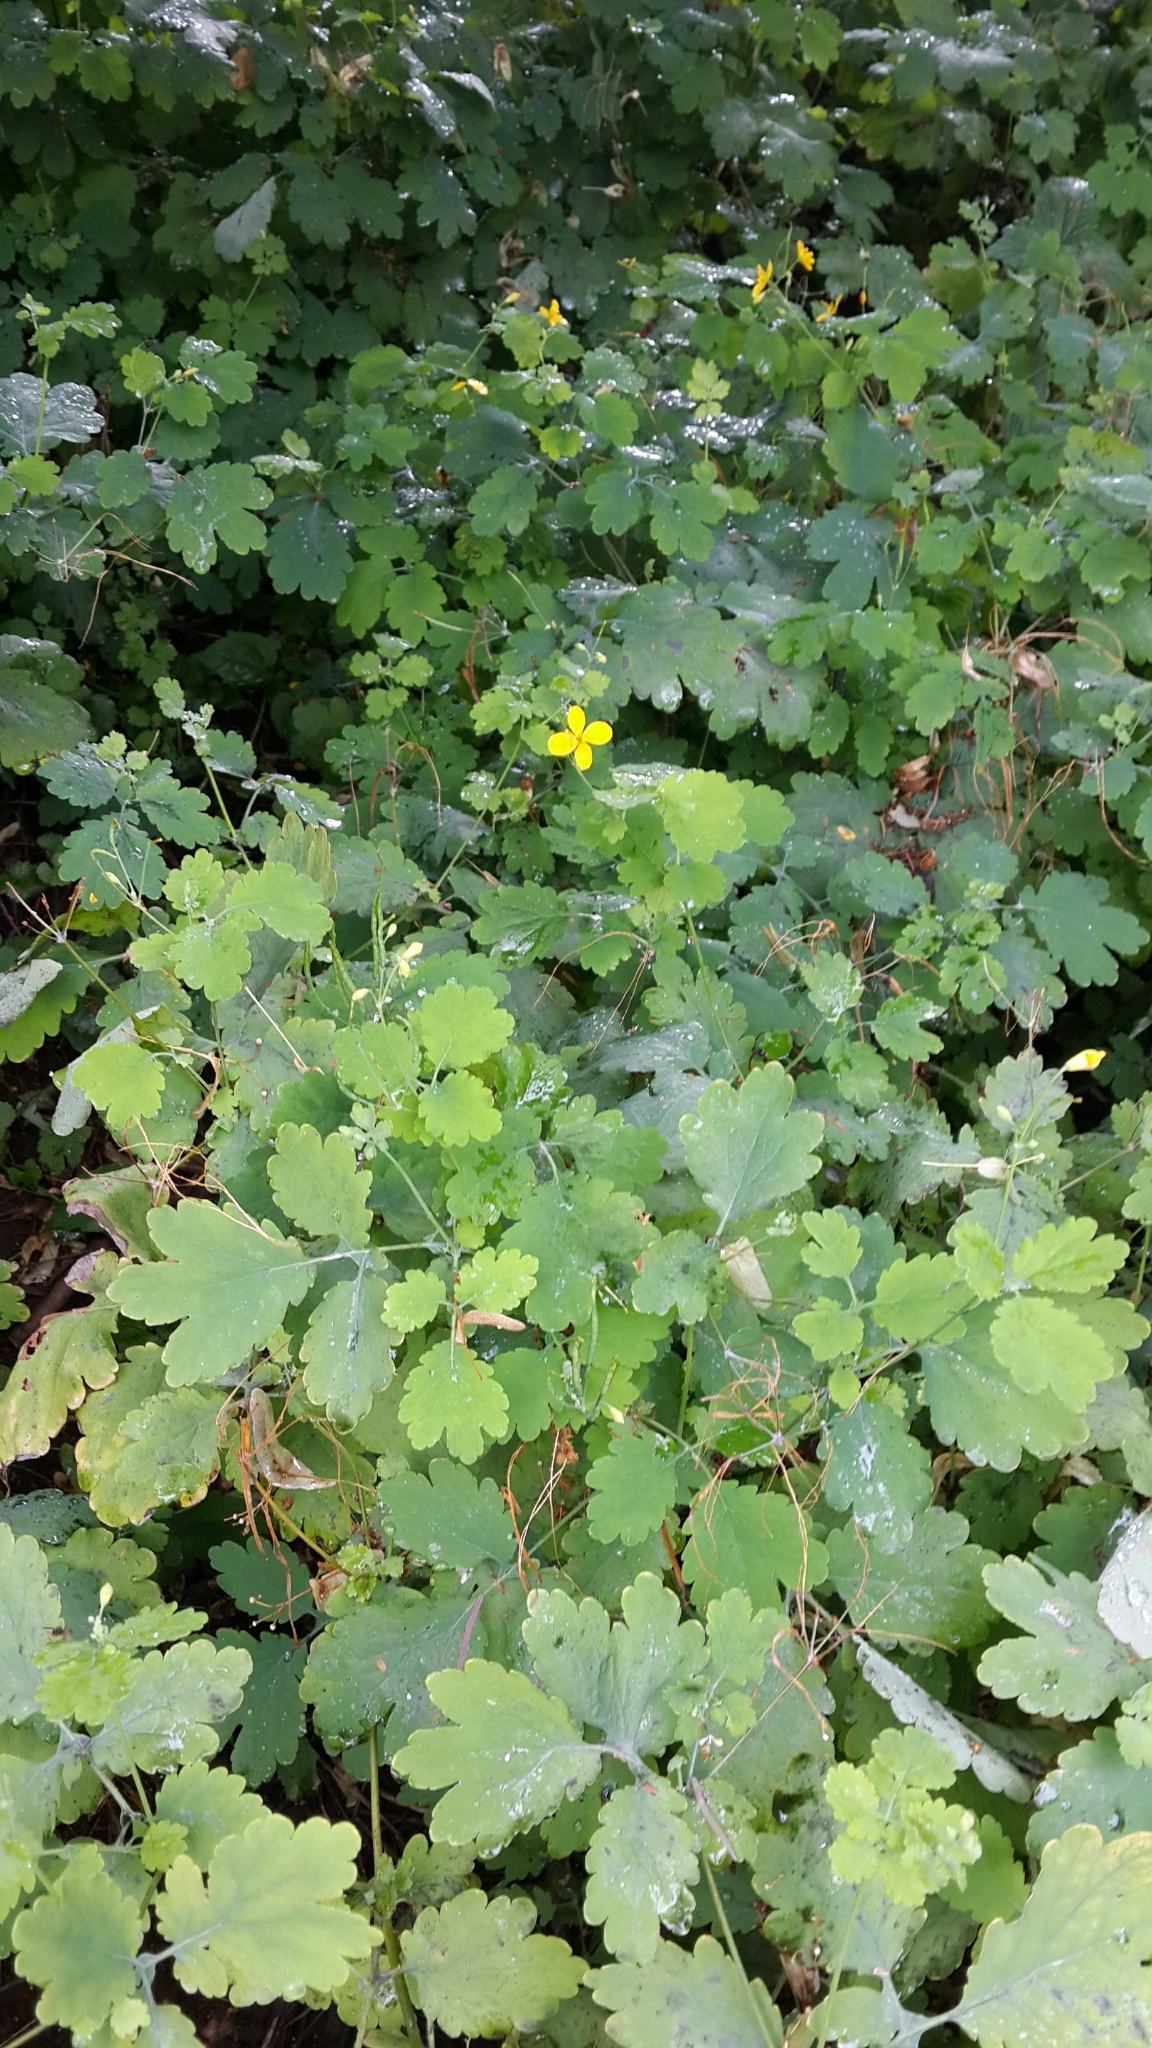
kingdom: Plantae
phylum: Tracheophyta
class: Magnoliopsida
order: Ranunculales
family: Papaveraceae
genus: Chelidonium
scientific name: Chelidonium majus
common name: Greater celandine
